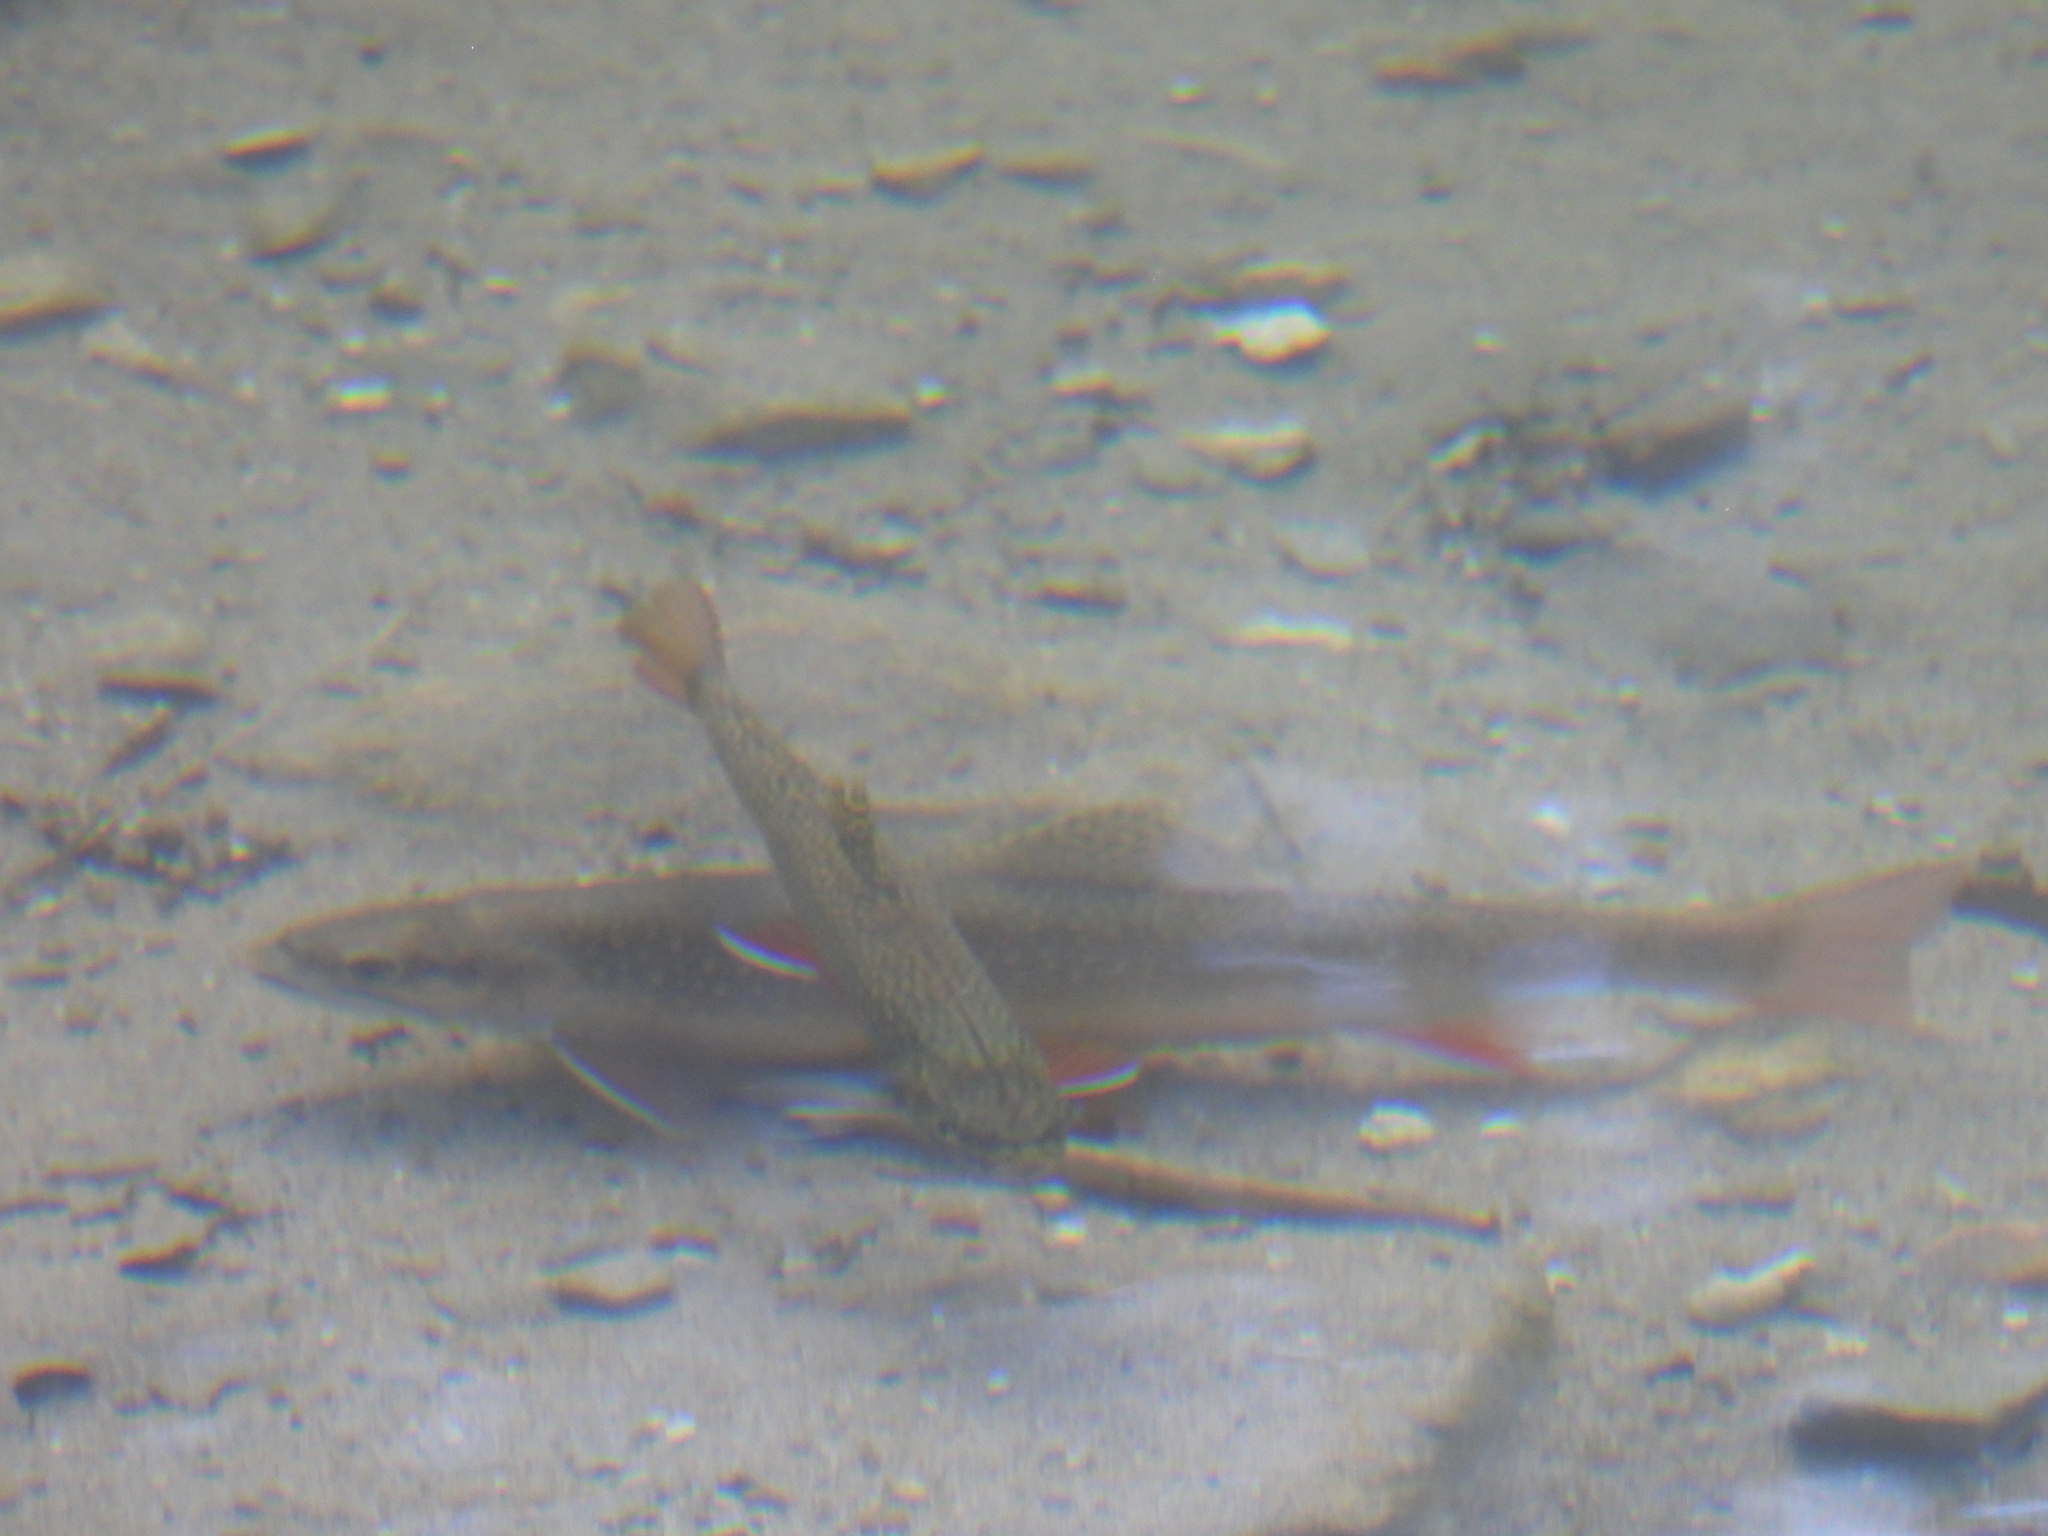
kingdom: Animalia
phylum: Chordata
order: Salmoniformes
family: Salmonidae
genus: Salvelinus
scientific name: Salvelinus fontinalis
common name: Brook trout
